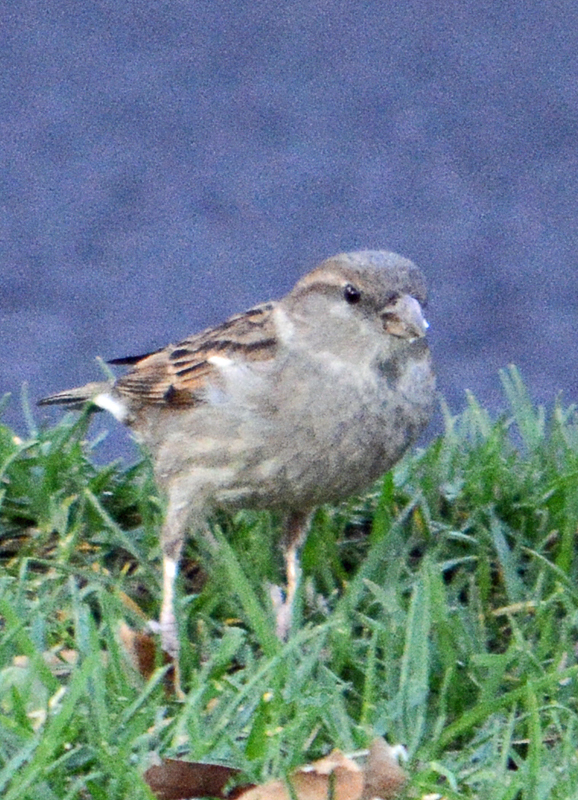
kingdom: Animalia
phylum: Chordata
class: Aves
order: Passeriformes
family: Passeridae
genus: Passer
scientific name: Passer domesticus
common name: House sparrow
